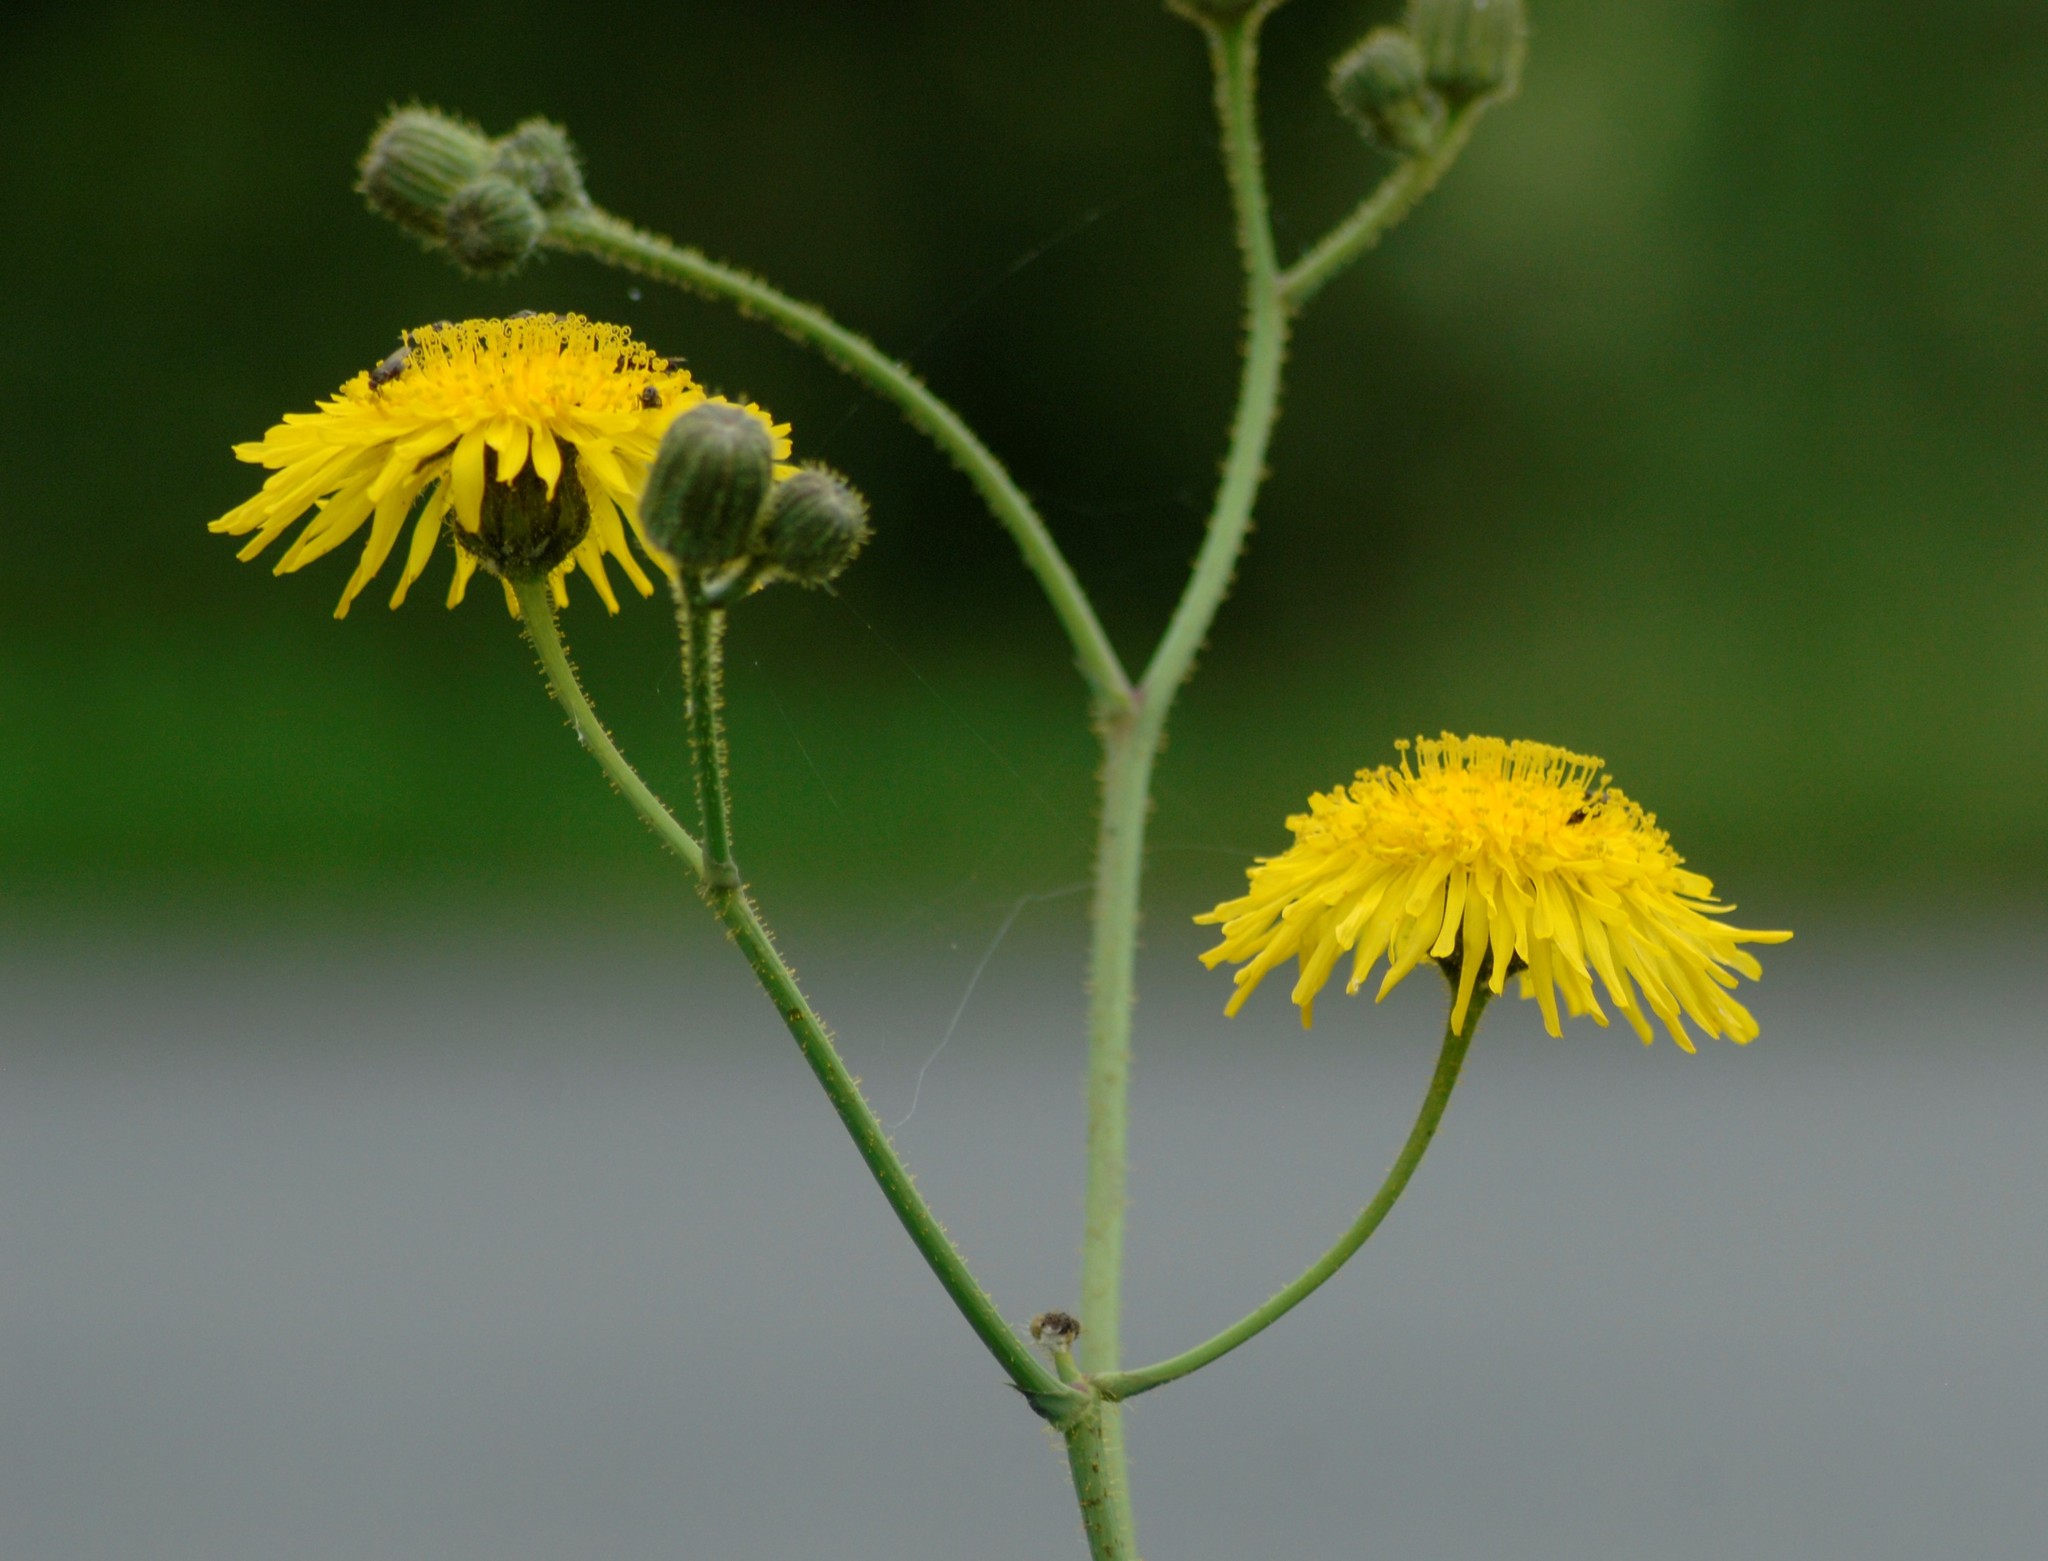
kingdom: Plantae
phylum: Tracheophyta
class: Magnoliopsida
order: Asterales
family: Asteraceae
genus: Sonchus
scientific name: Sonchus arvensis
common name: Perennial sow-thistle
